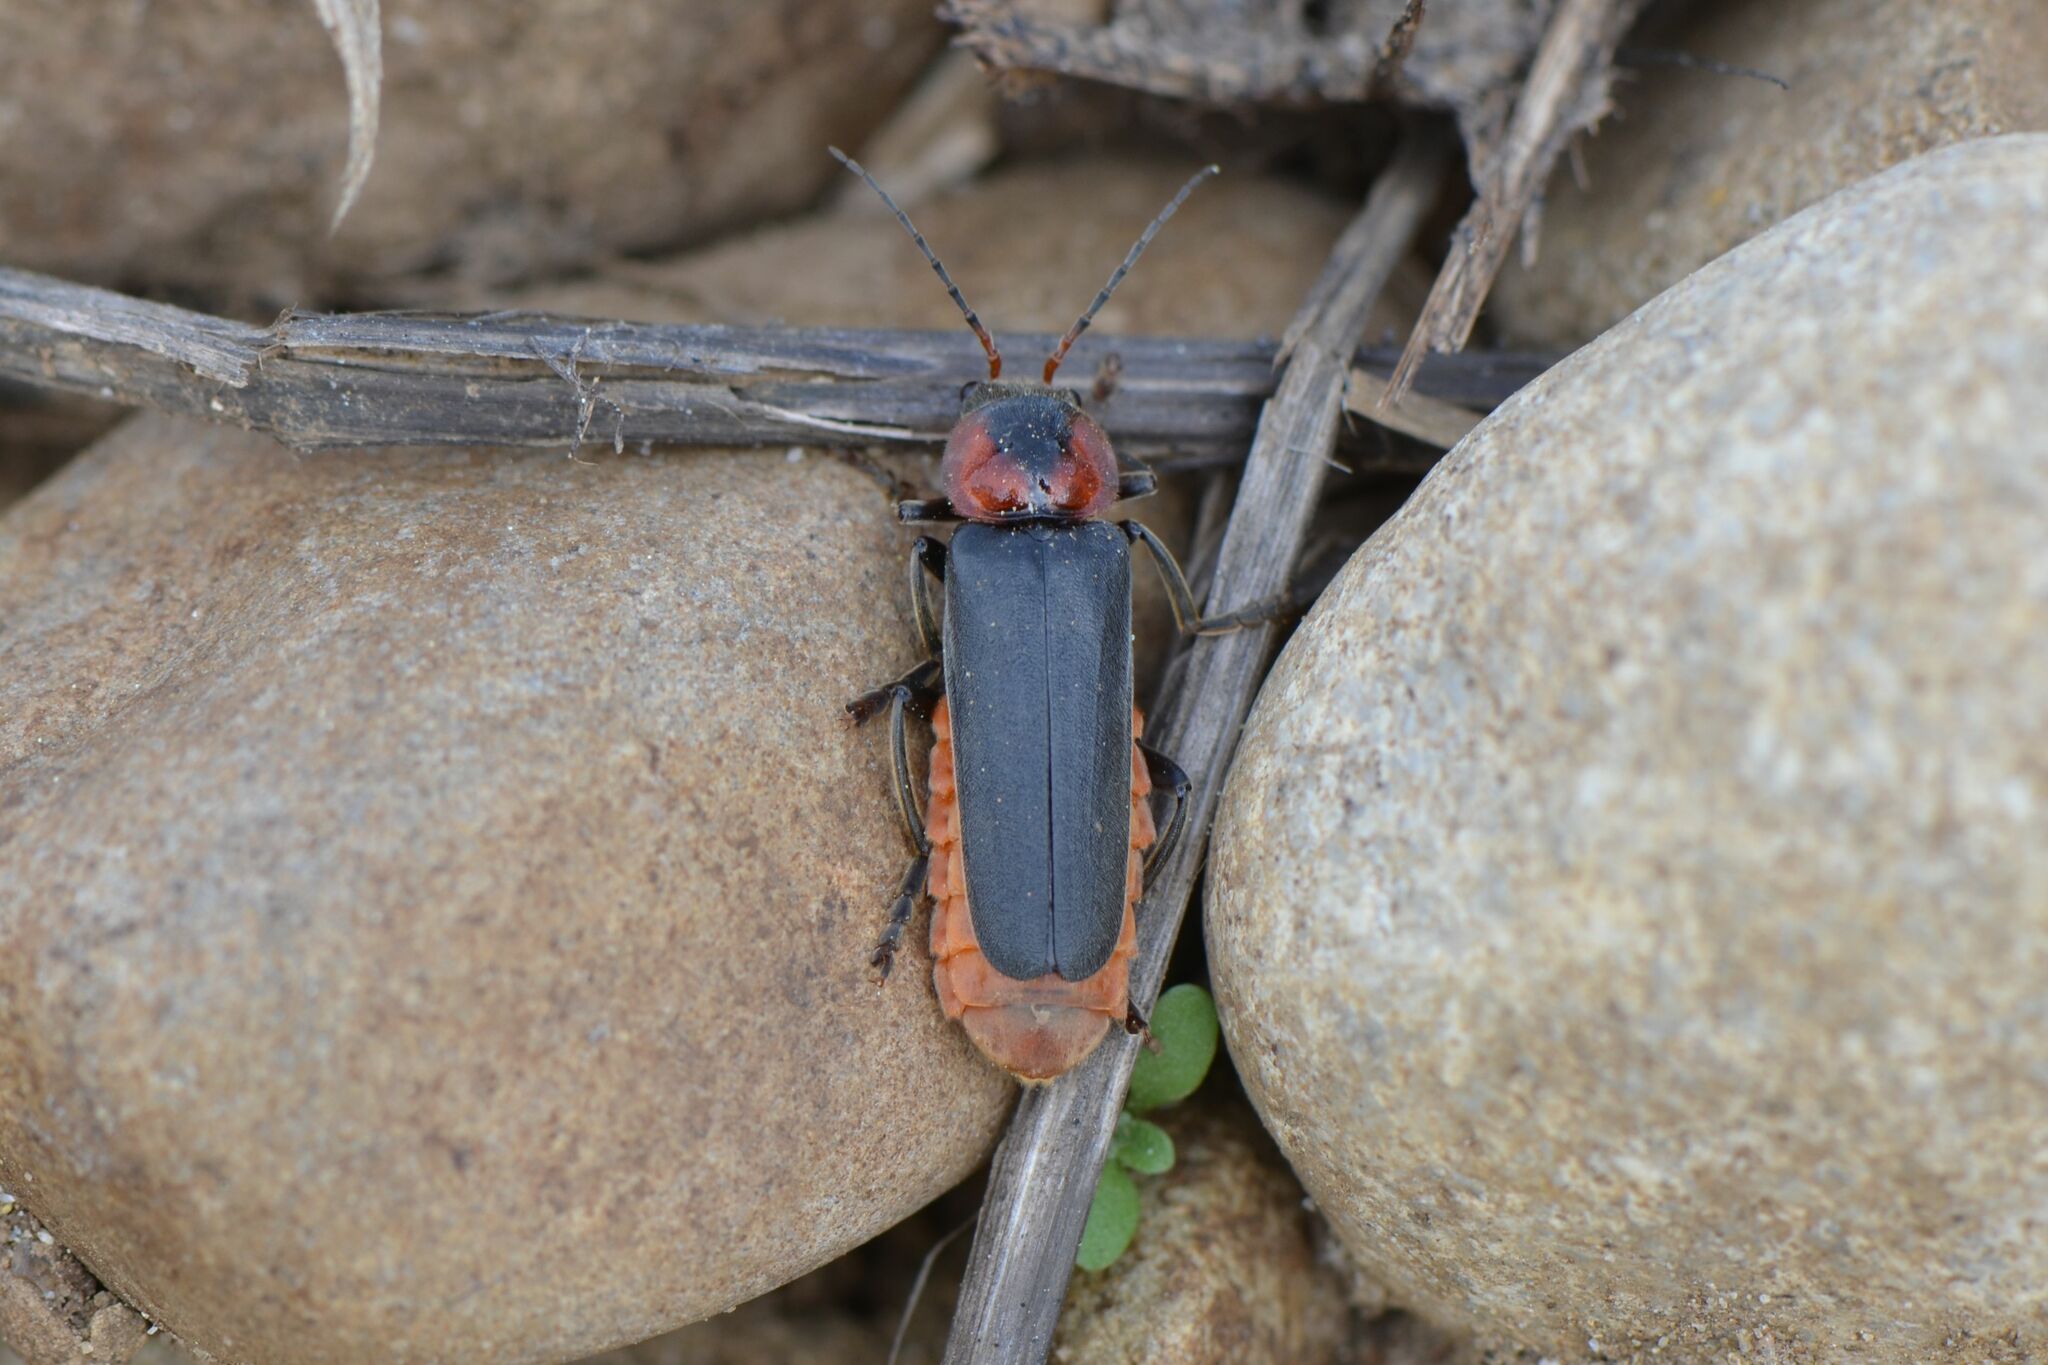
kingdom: Animalia
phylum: Arthropoda
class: Insecta
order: Coleoptera
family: Cantharidae
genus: Cantharis
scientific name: Cantharis fusca
